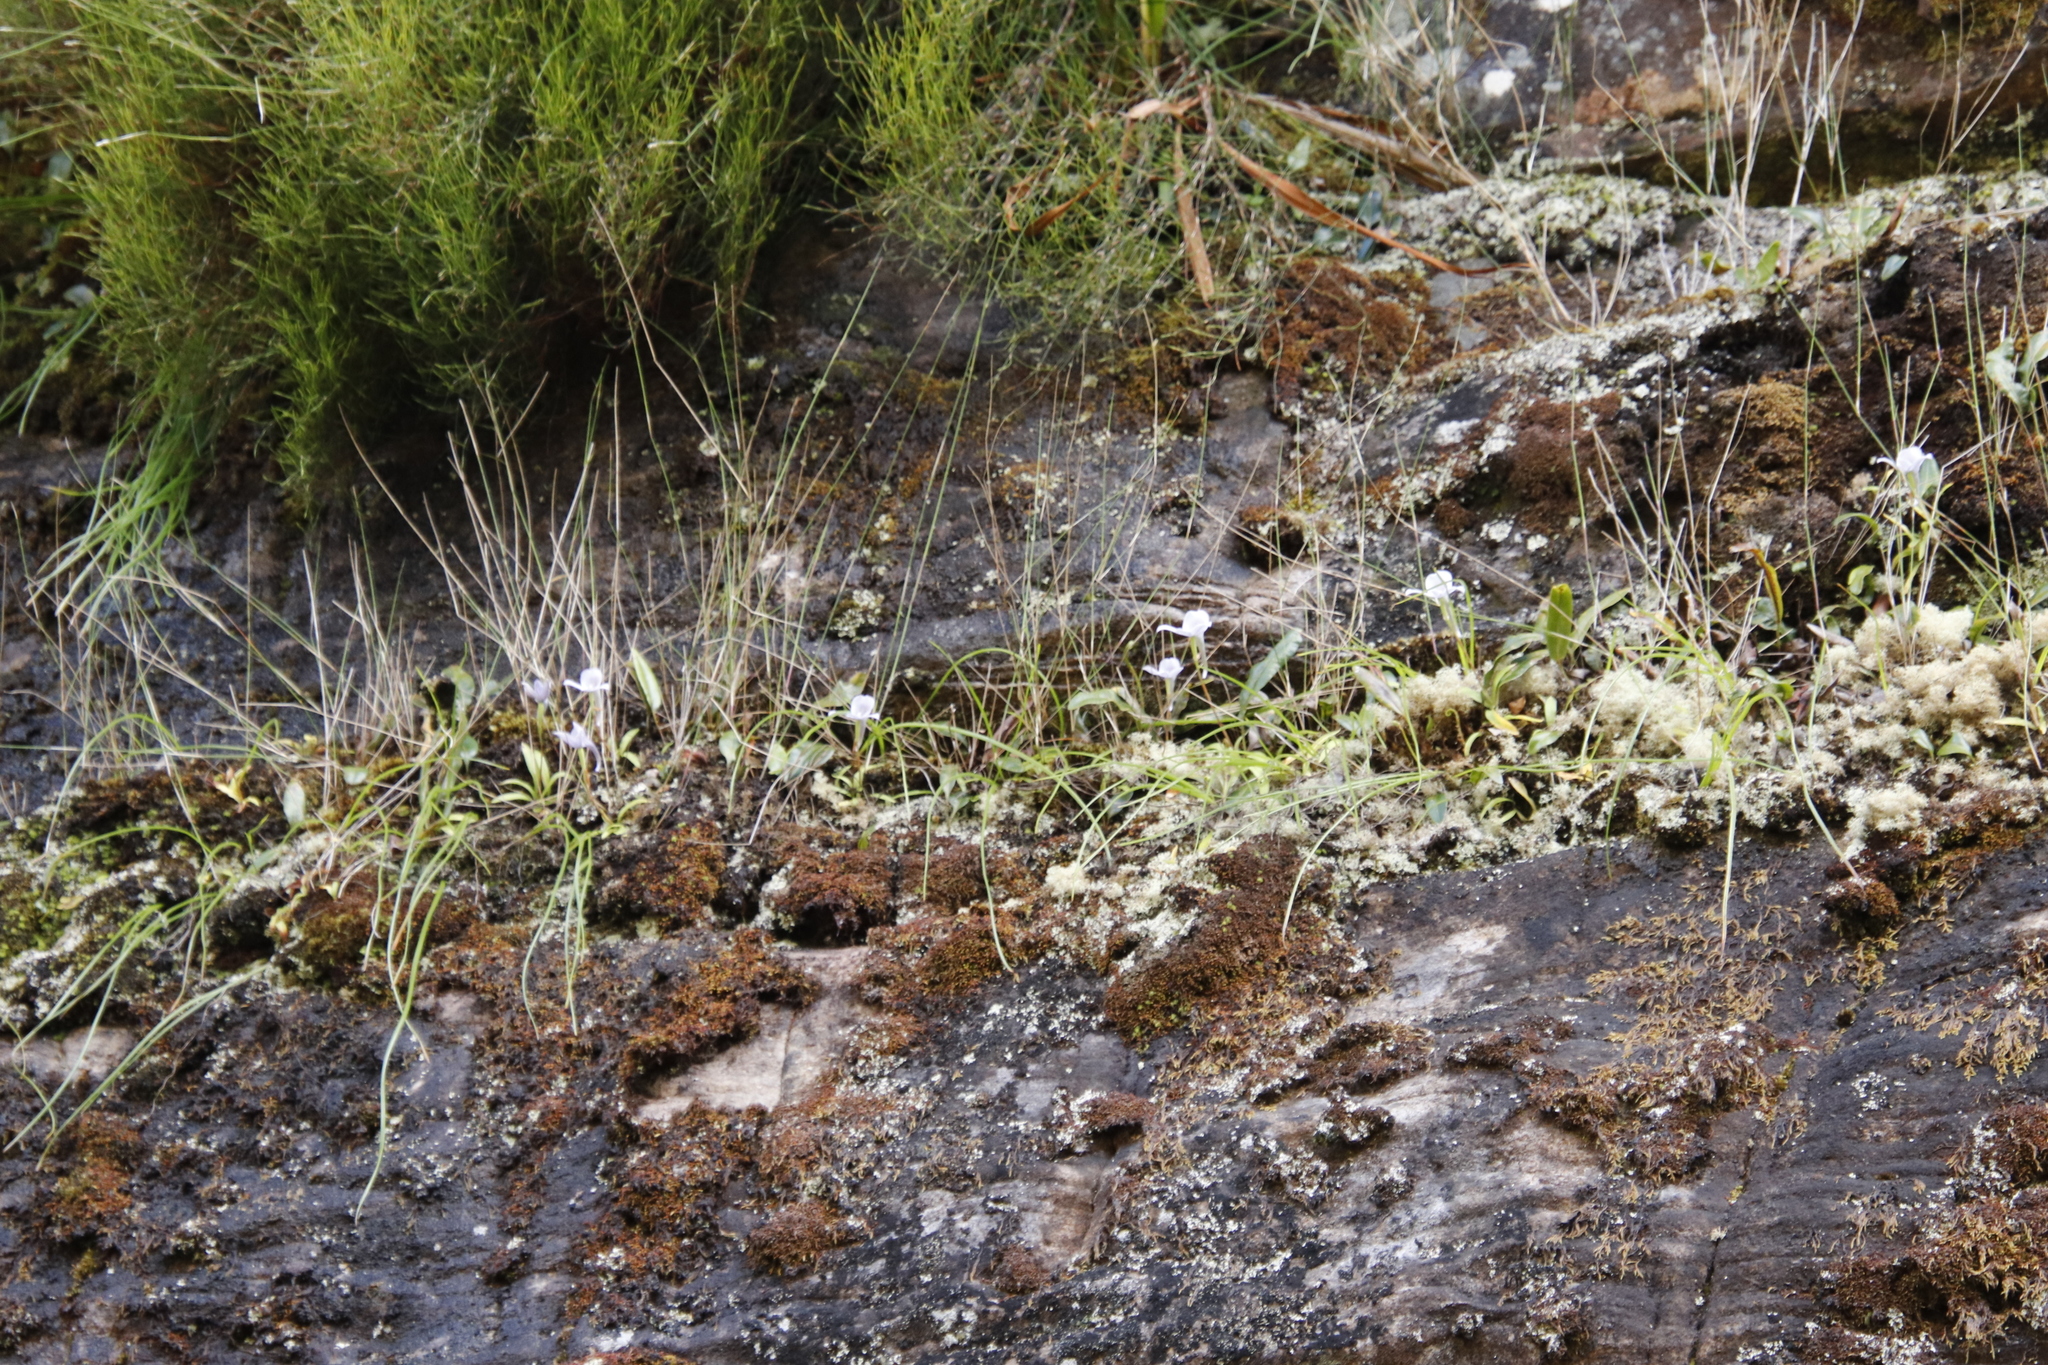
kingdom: Plantae
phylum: Tracheophyta
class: Liliopsida
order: Asparagales
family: Orchidaceae
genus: Disa
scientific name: Disa longicornu
